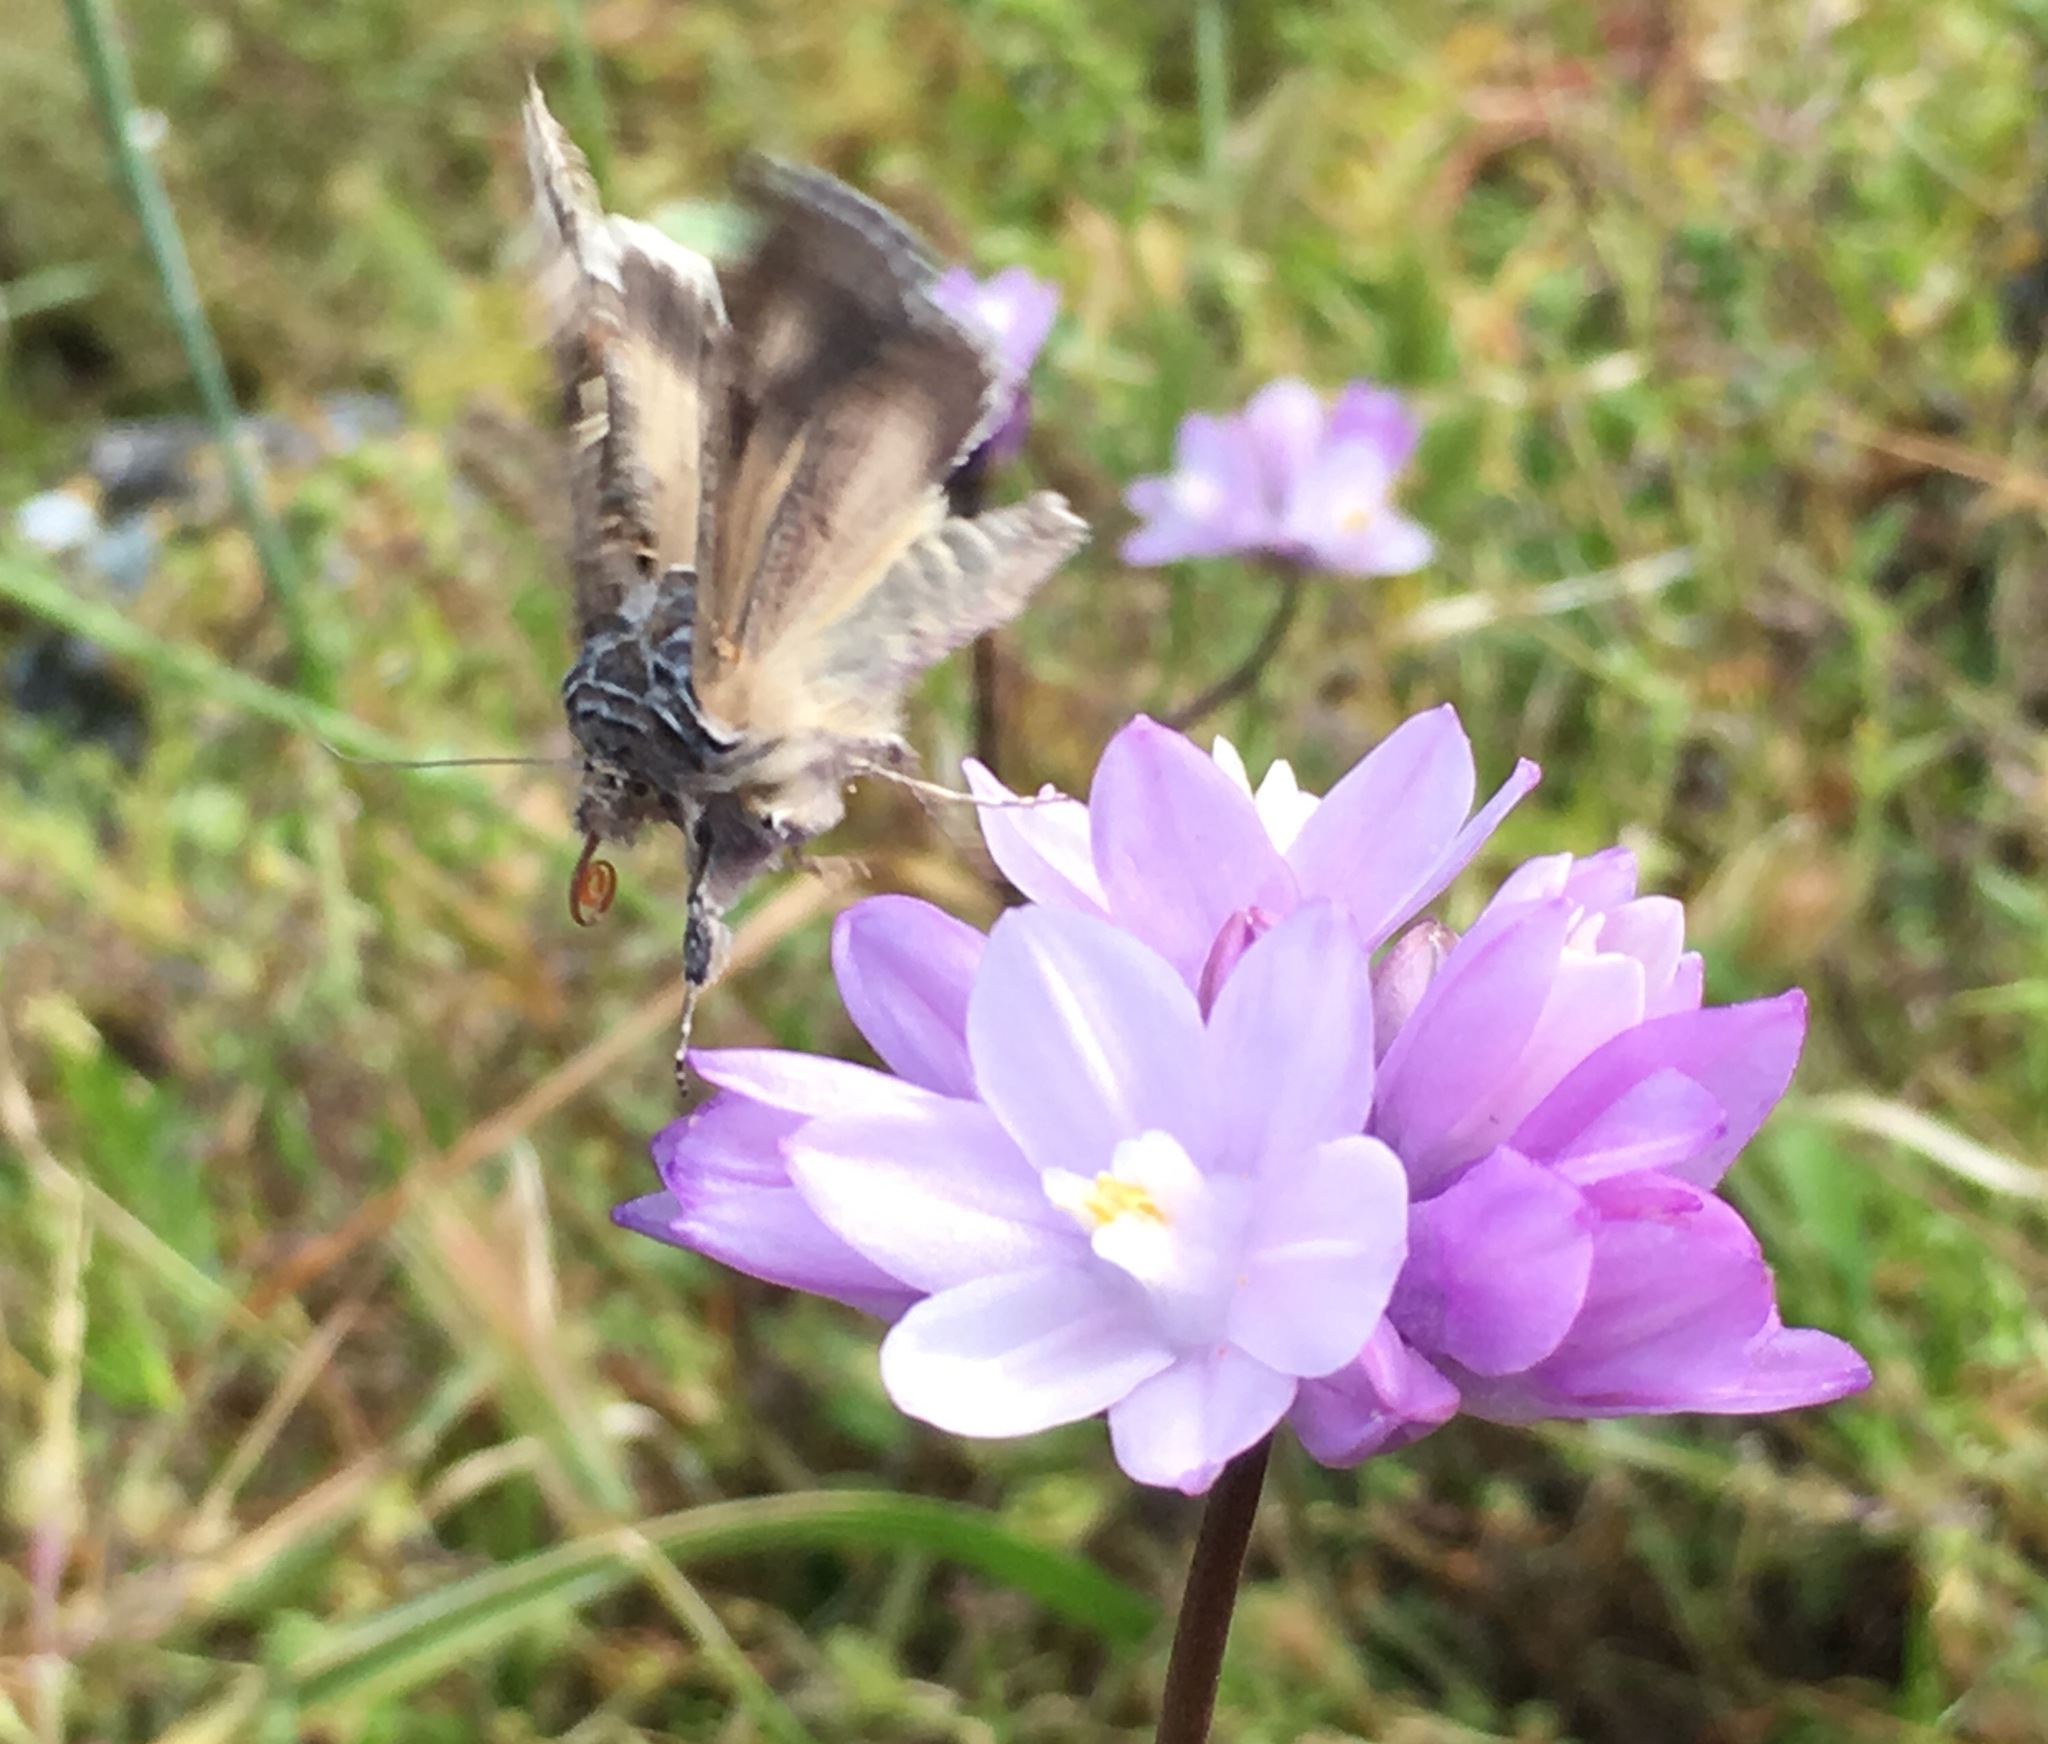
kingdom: Plantae
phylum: Tracheophyta
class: Liliopsida
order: Asparagales
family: Asparagaceae
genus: Dipterostemon
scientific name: Dipterostemon capitatus
